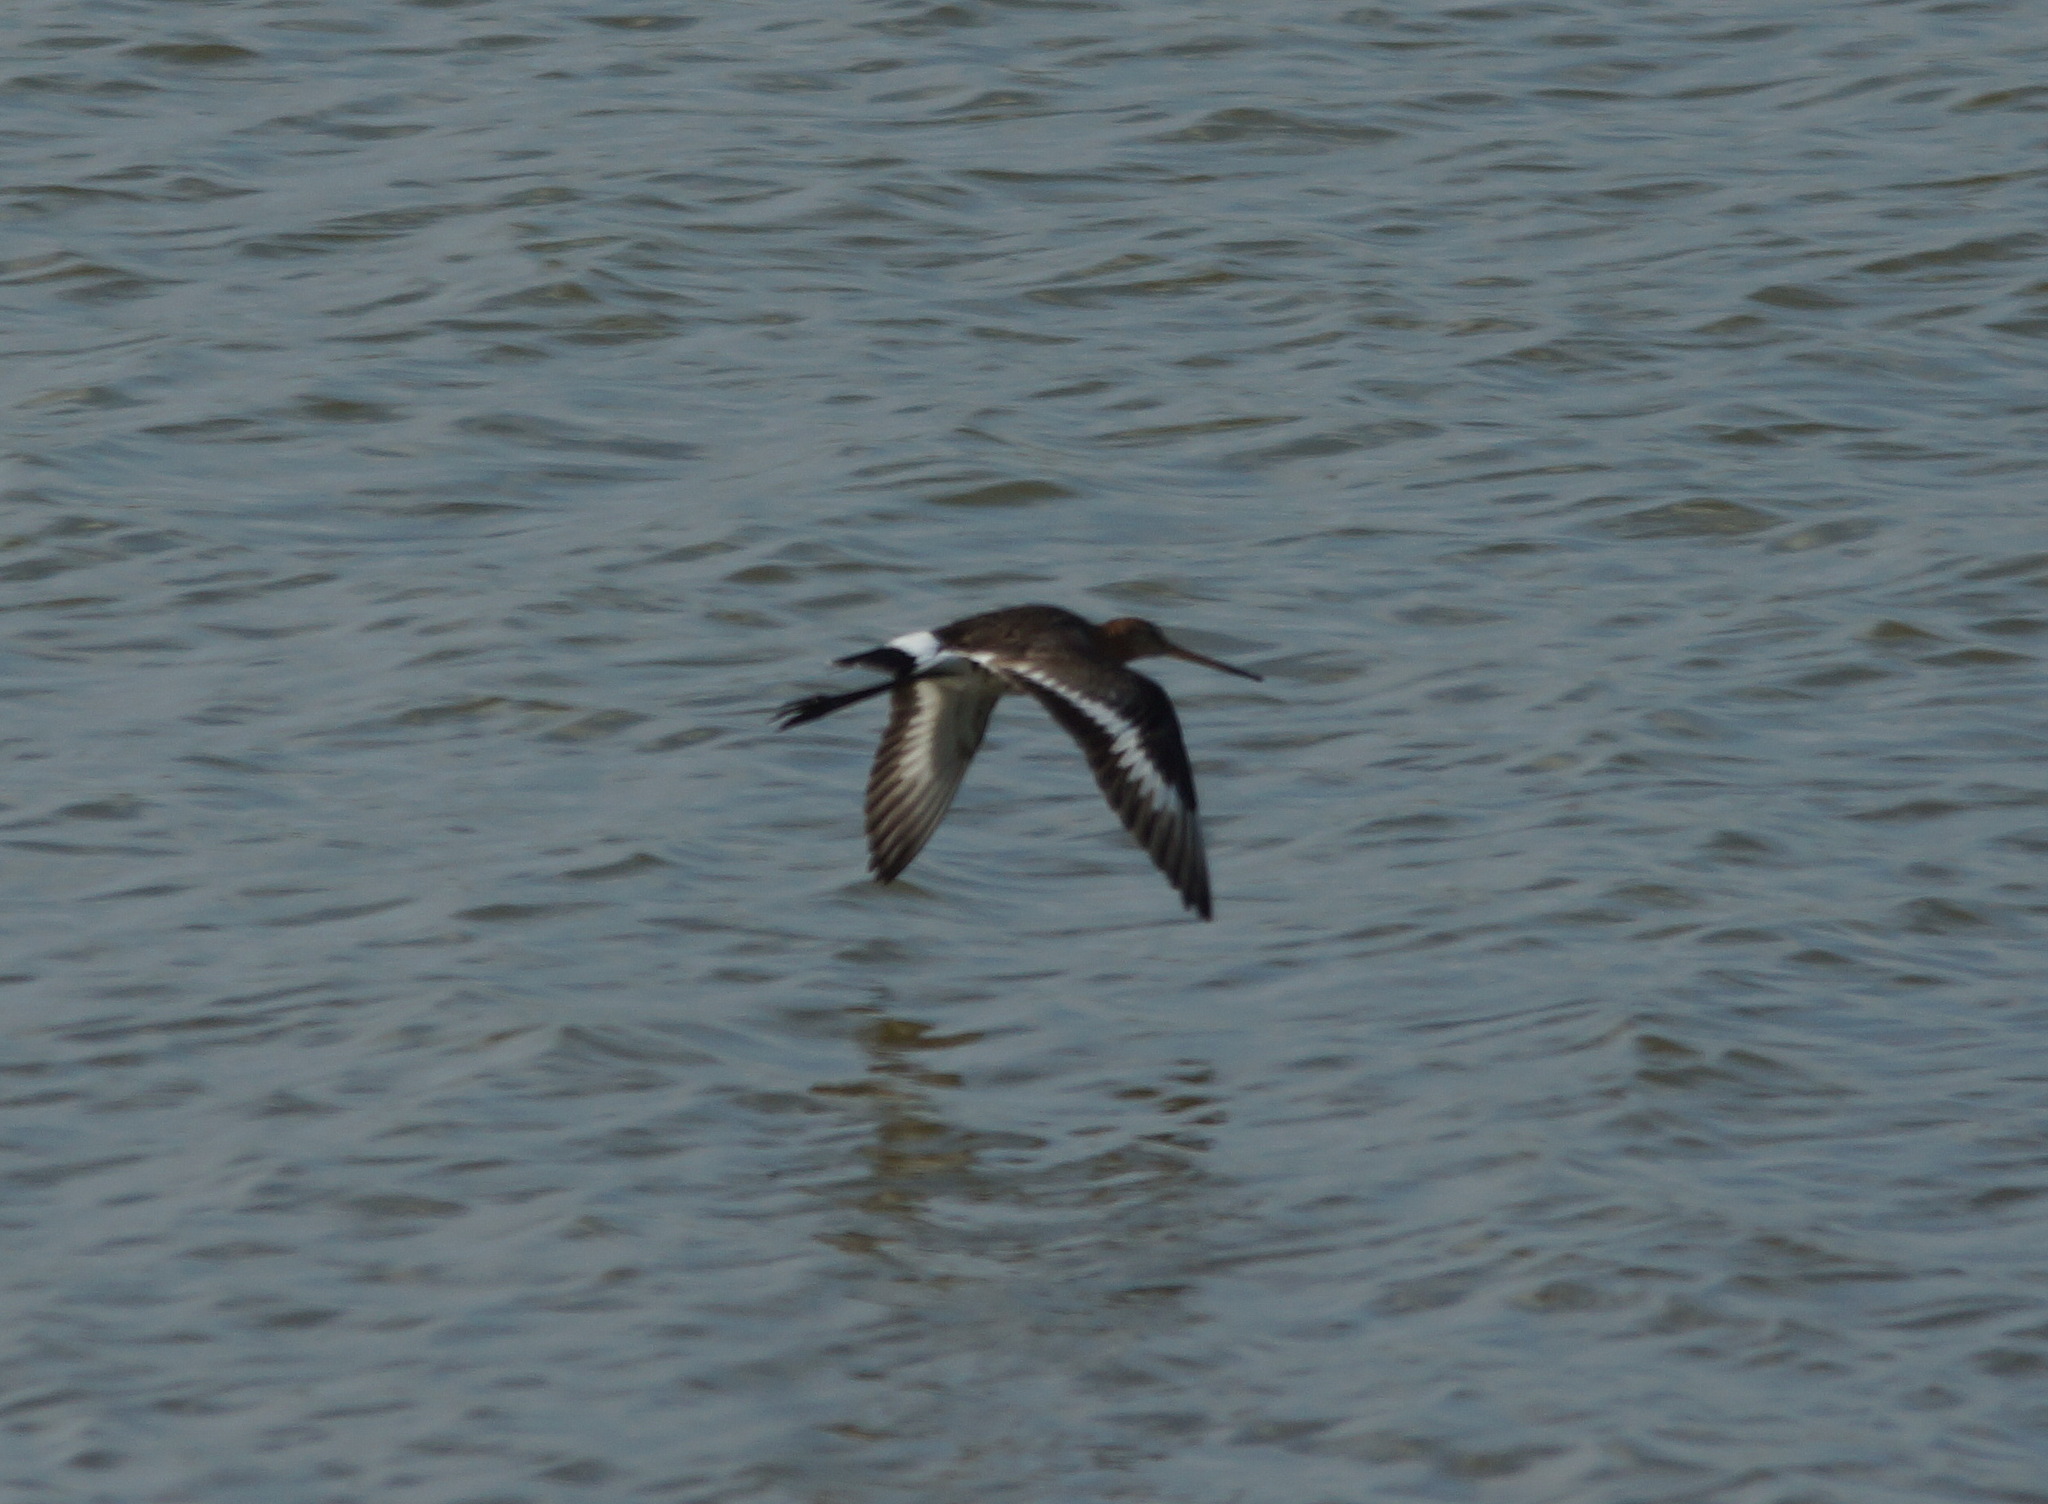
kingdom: Animalia
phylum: Chordata
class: Aves
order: Charadriiformes
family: Scolopacidae
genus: Limosa
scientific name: Limosa limosa
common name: Black-tailed godwit
